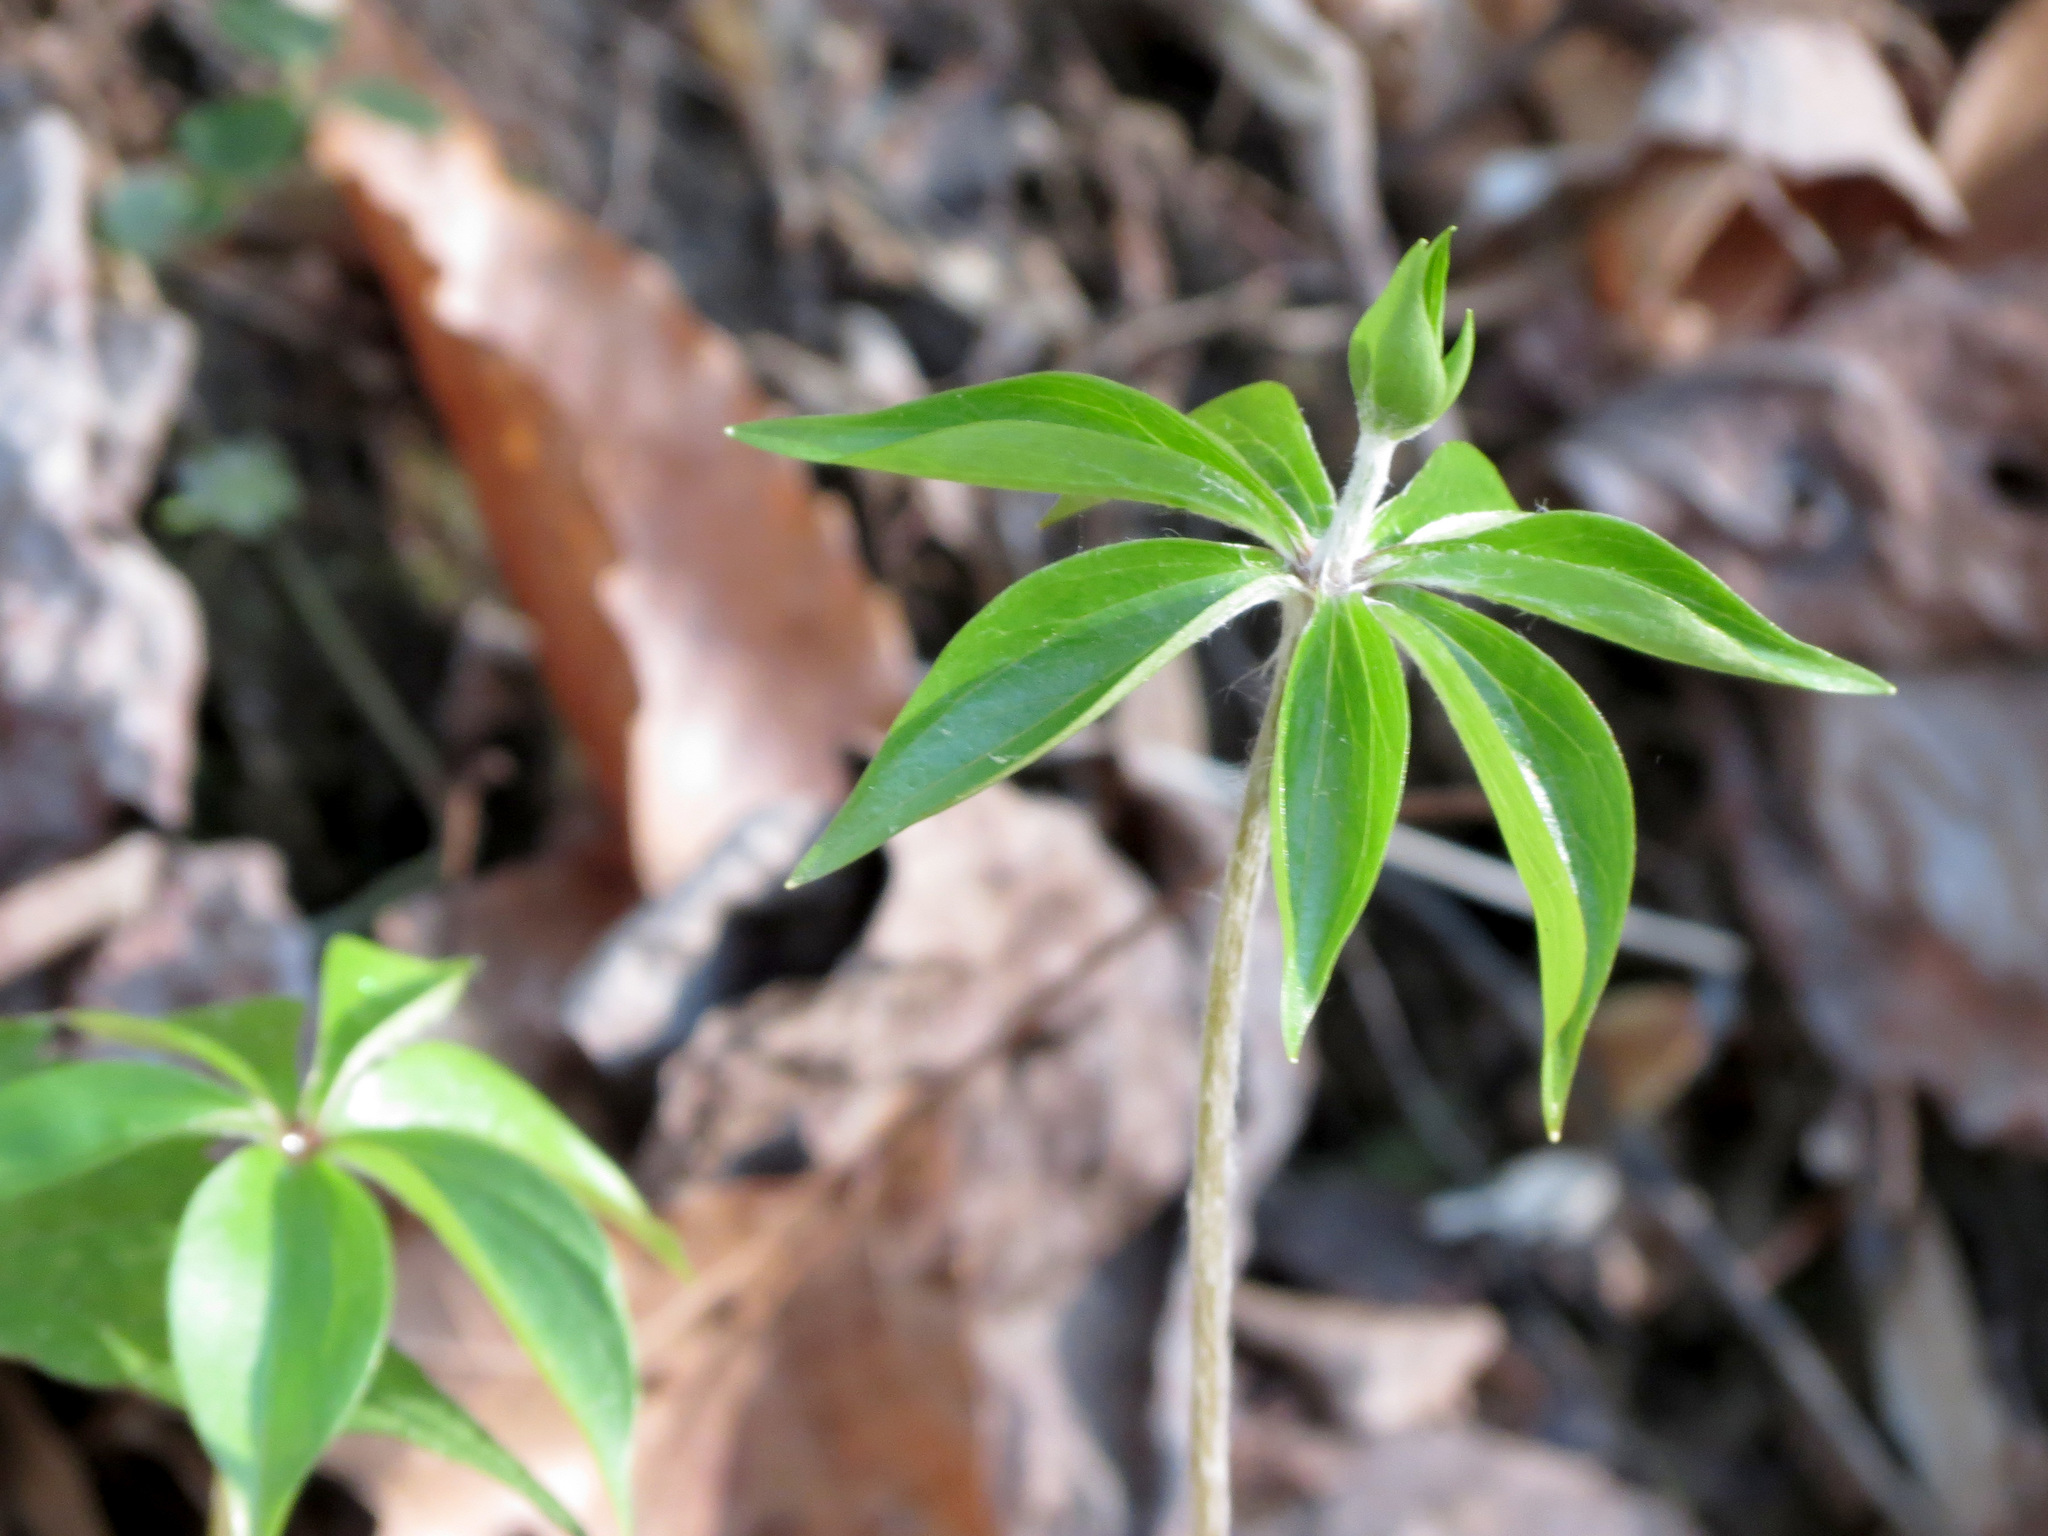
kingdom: Plantae
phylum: Tracheophyta
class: Liliopsida
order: Liliales
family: Liliaceae
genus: Medeola
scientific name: Medeola virginiana
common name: Indian cucumber-root
